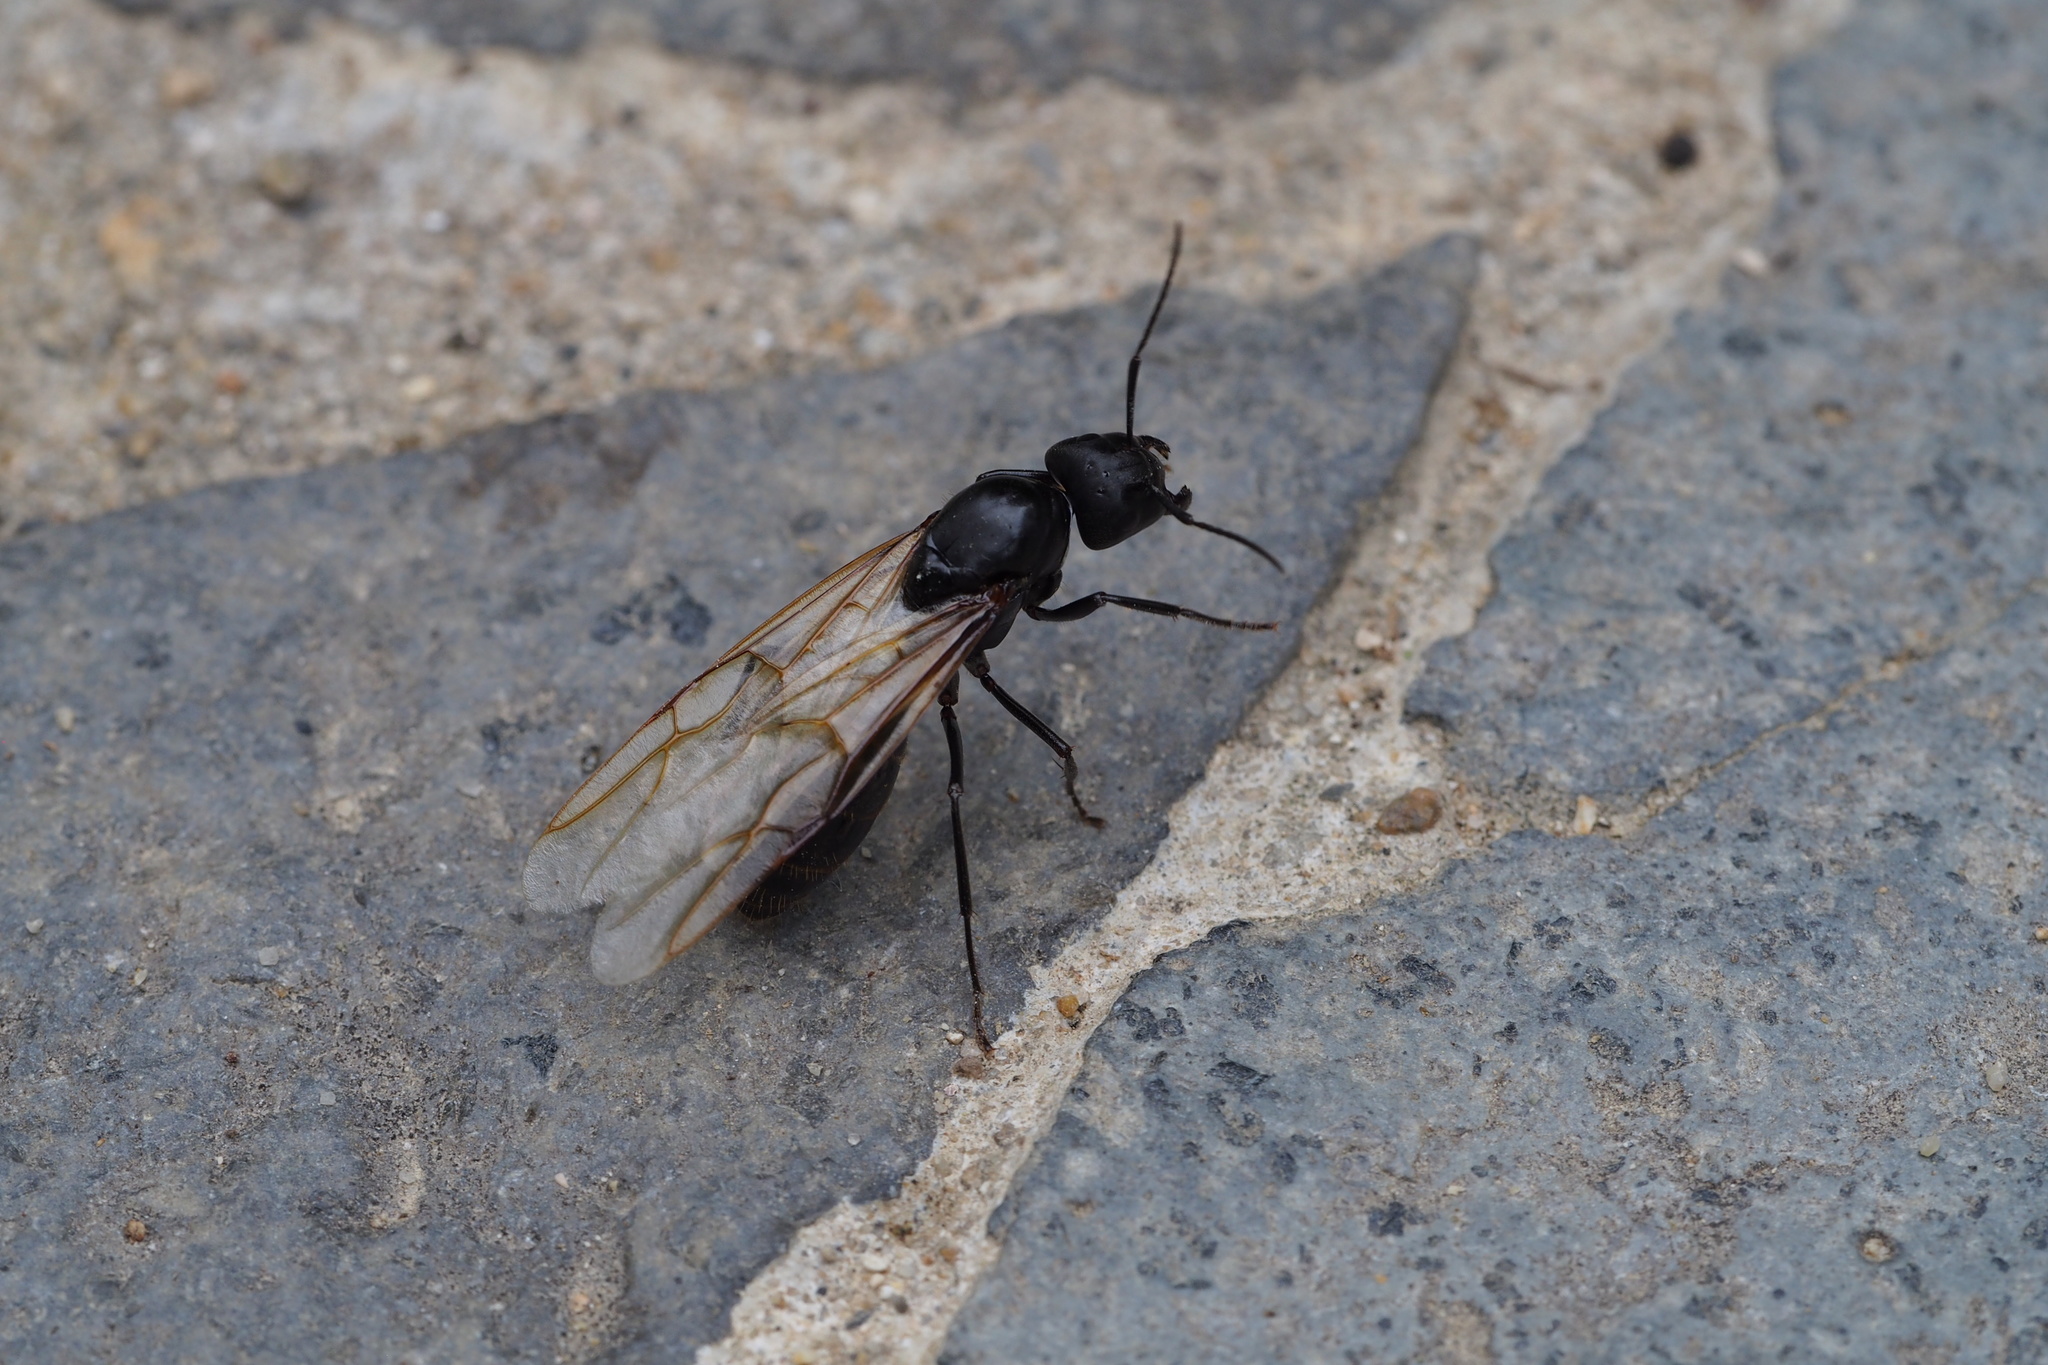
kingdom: Animalia
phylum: Arthropoda
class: Insecta
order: Hymenoptera
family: Formicidae
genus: Camponotus
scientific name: Camponotus japonicus
